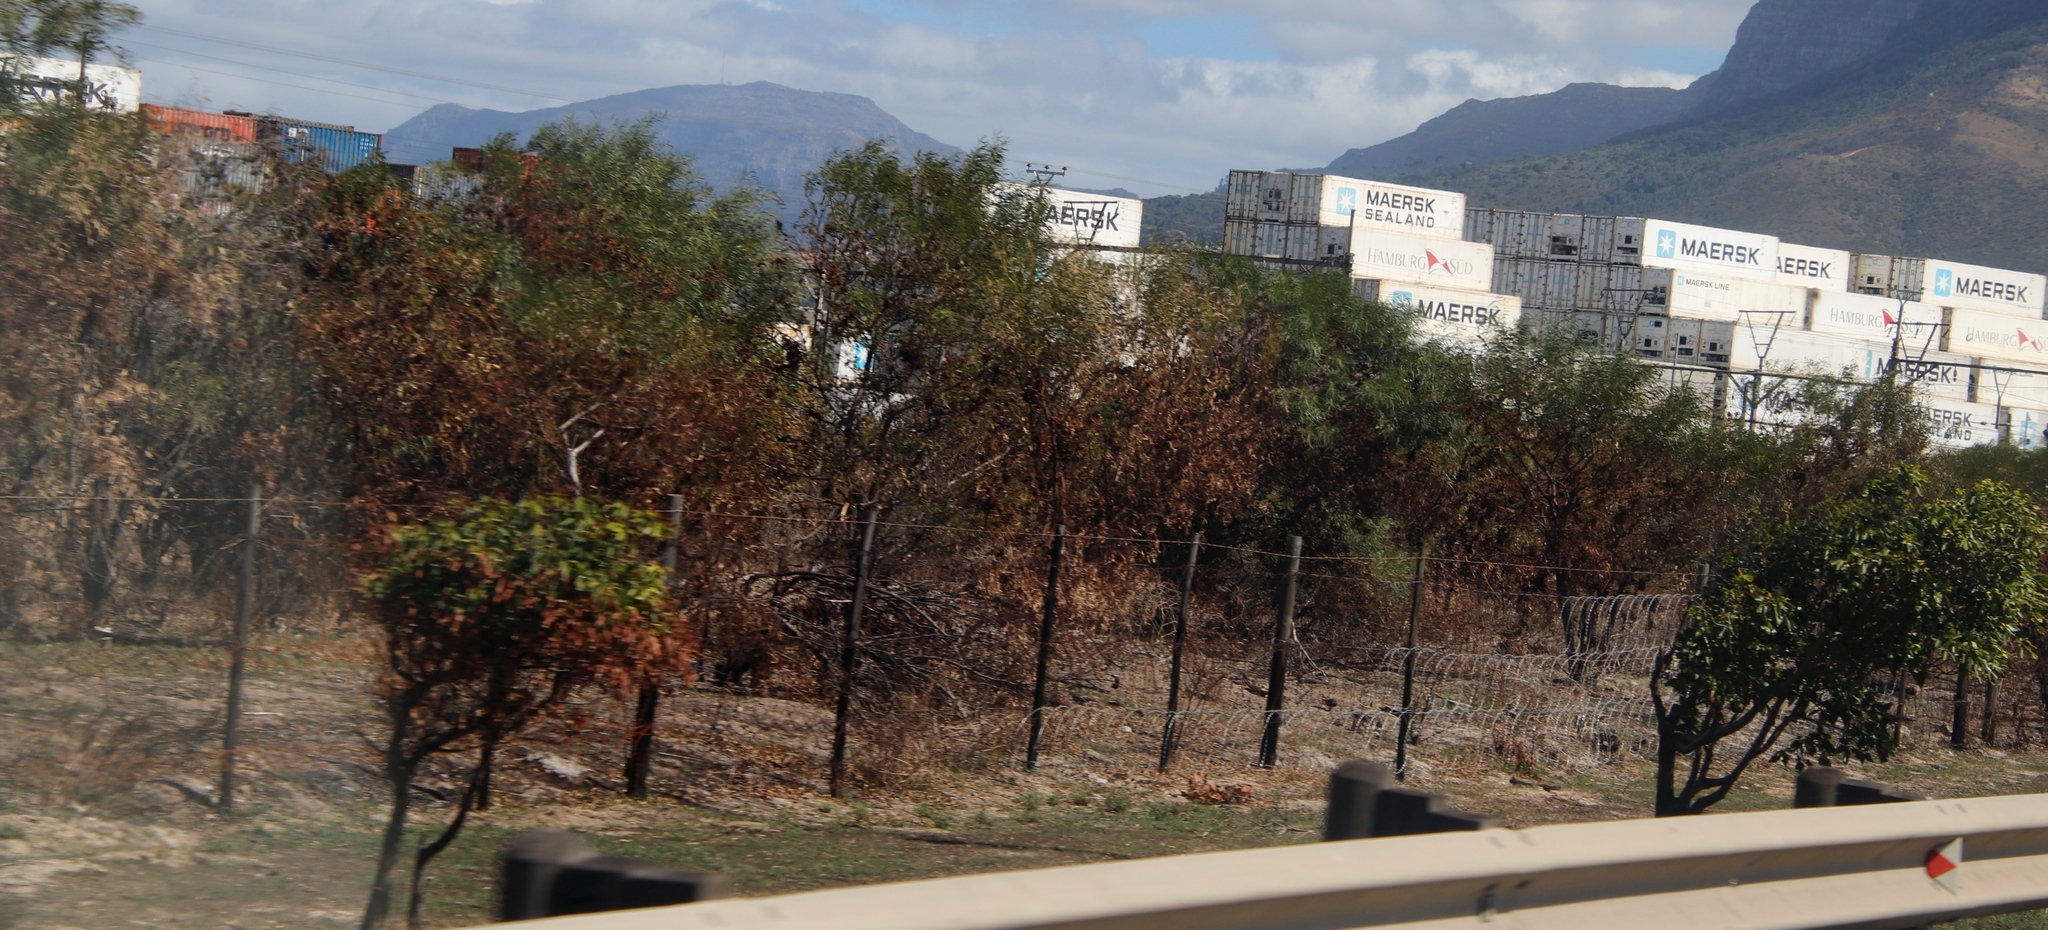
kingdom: Plantae
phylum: Tracheophyta
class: Magnoliopsida
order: Fabales
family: Fabaceae
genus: Acacia
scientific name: Acacia saligna
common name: Orange wattle
